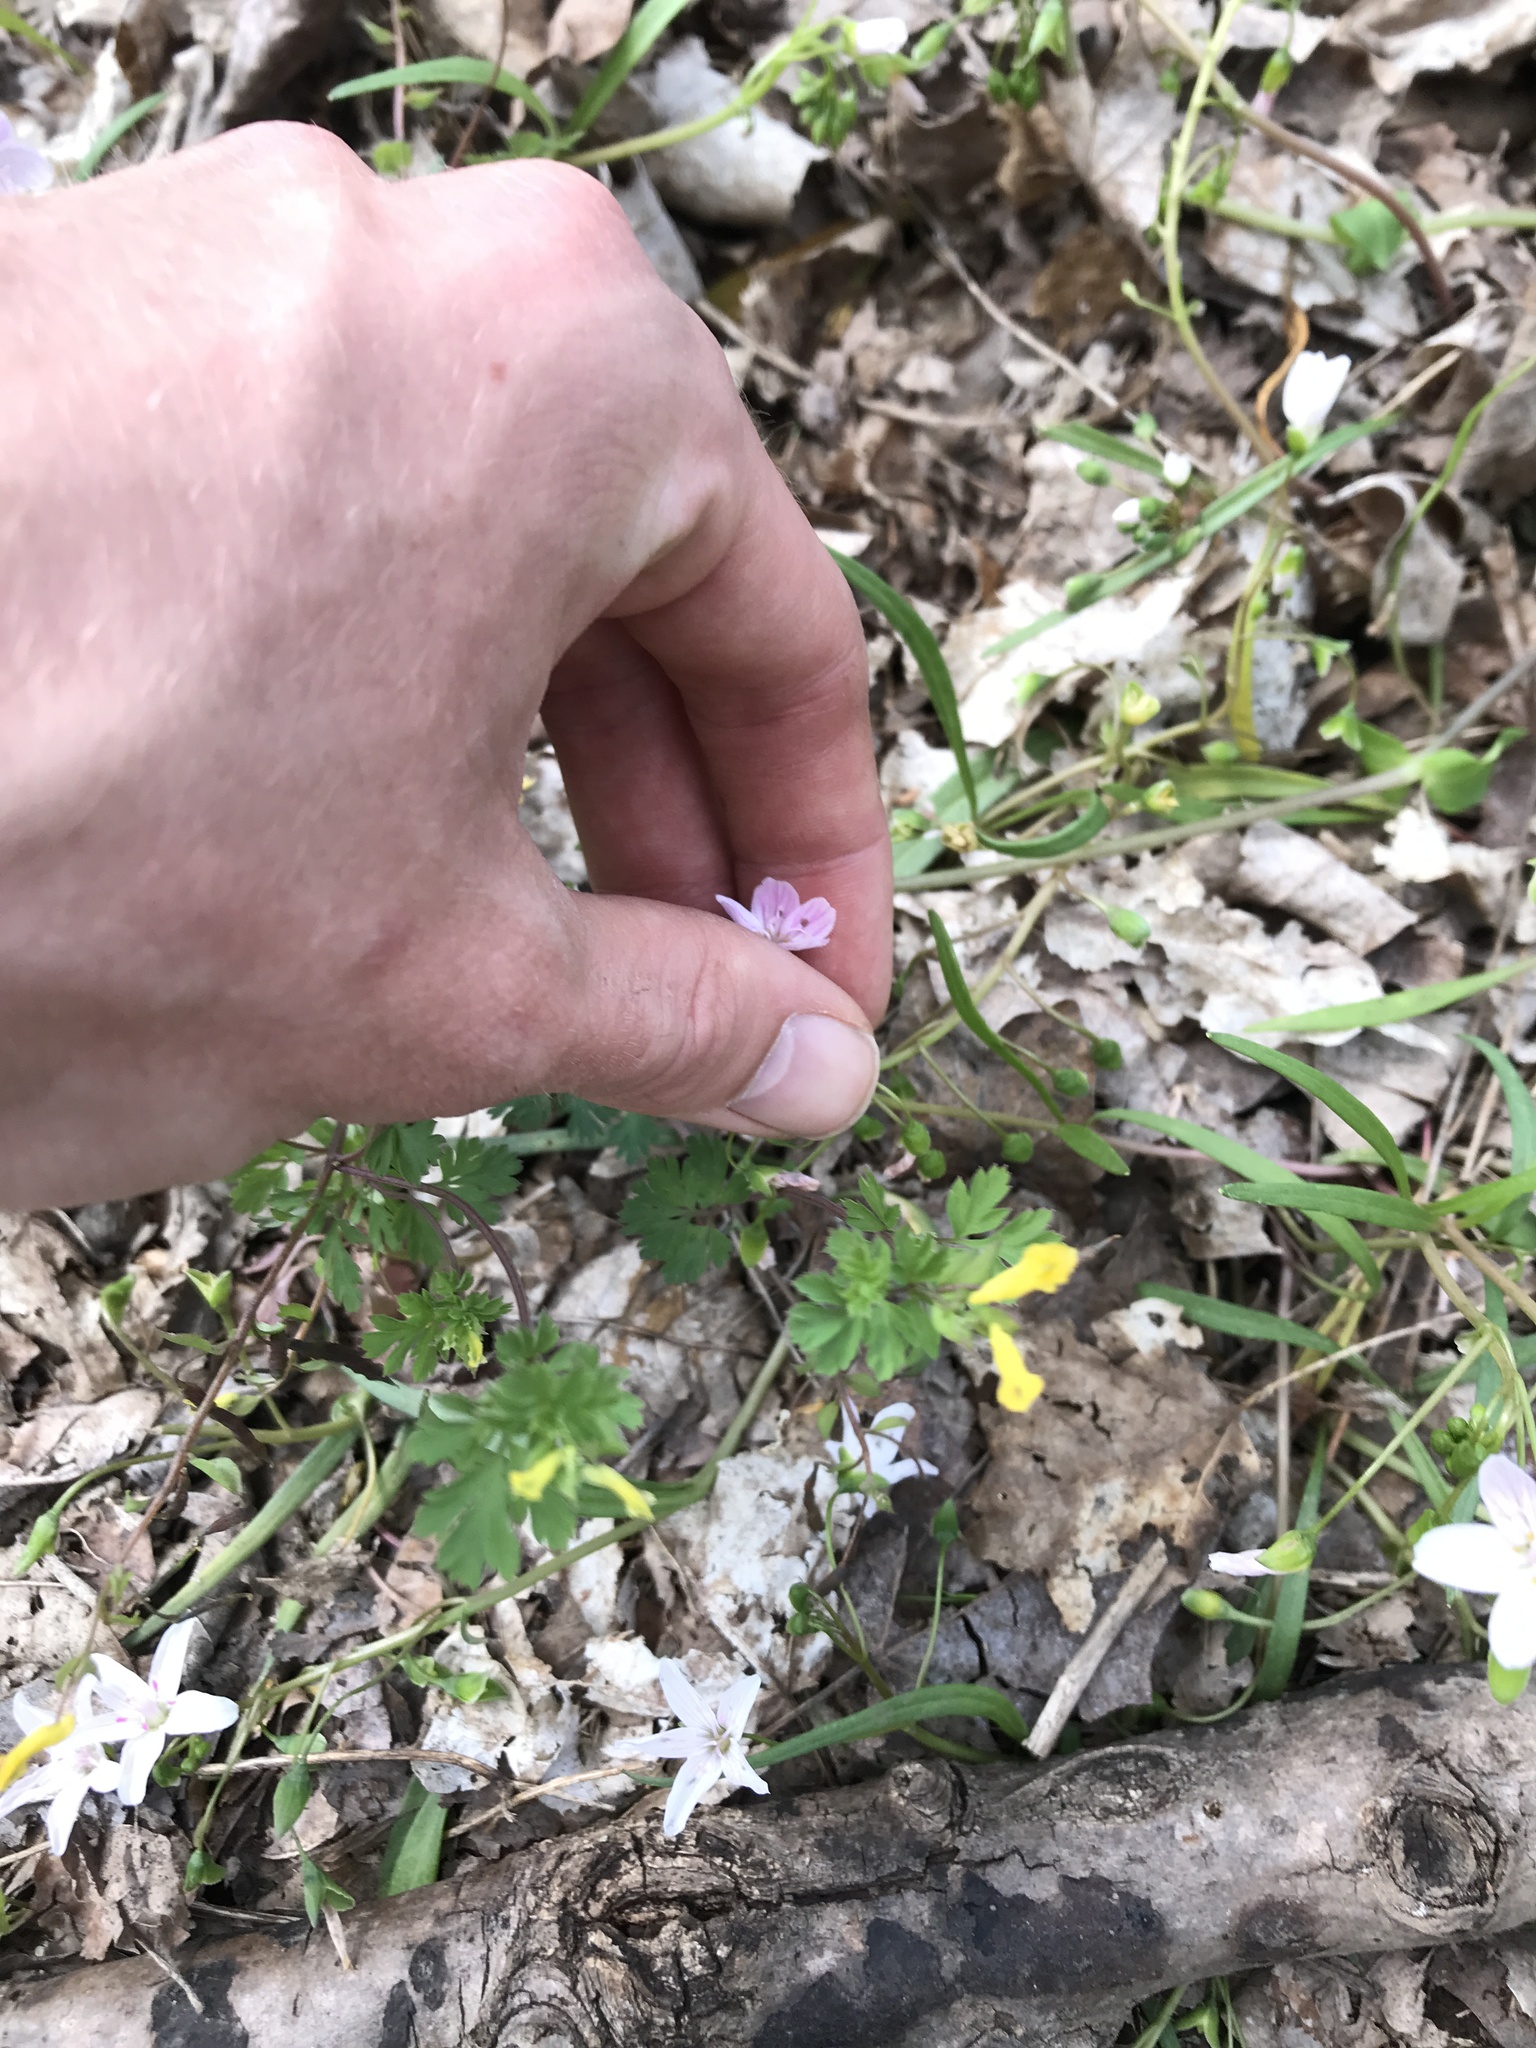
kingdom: Plantae
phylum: Tracheophyta
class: Magnoliopsida
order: Ranunculales
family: Papaveraceae
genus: Corydalis
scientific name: Corydalis flavula
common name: Yellow corydalis
